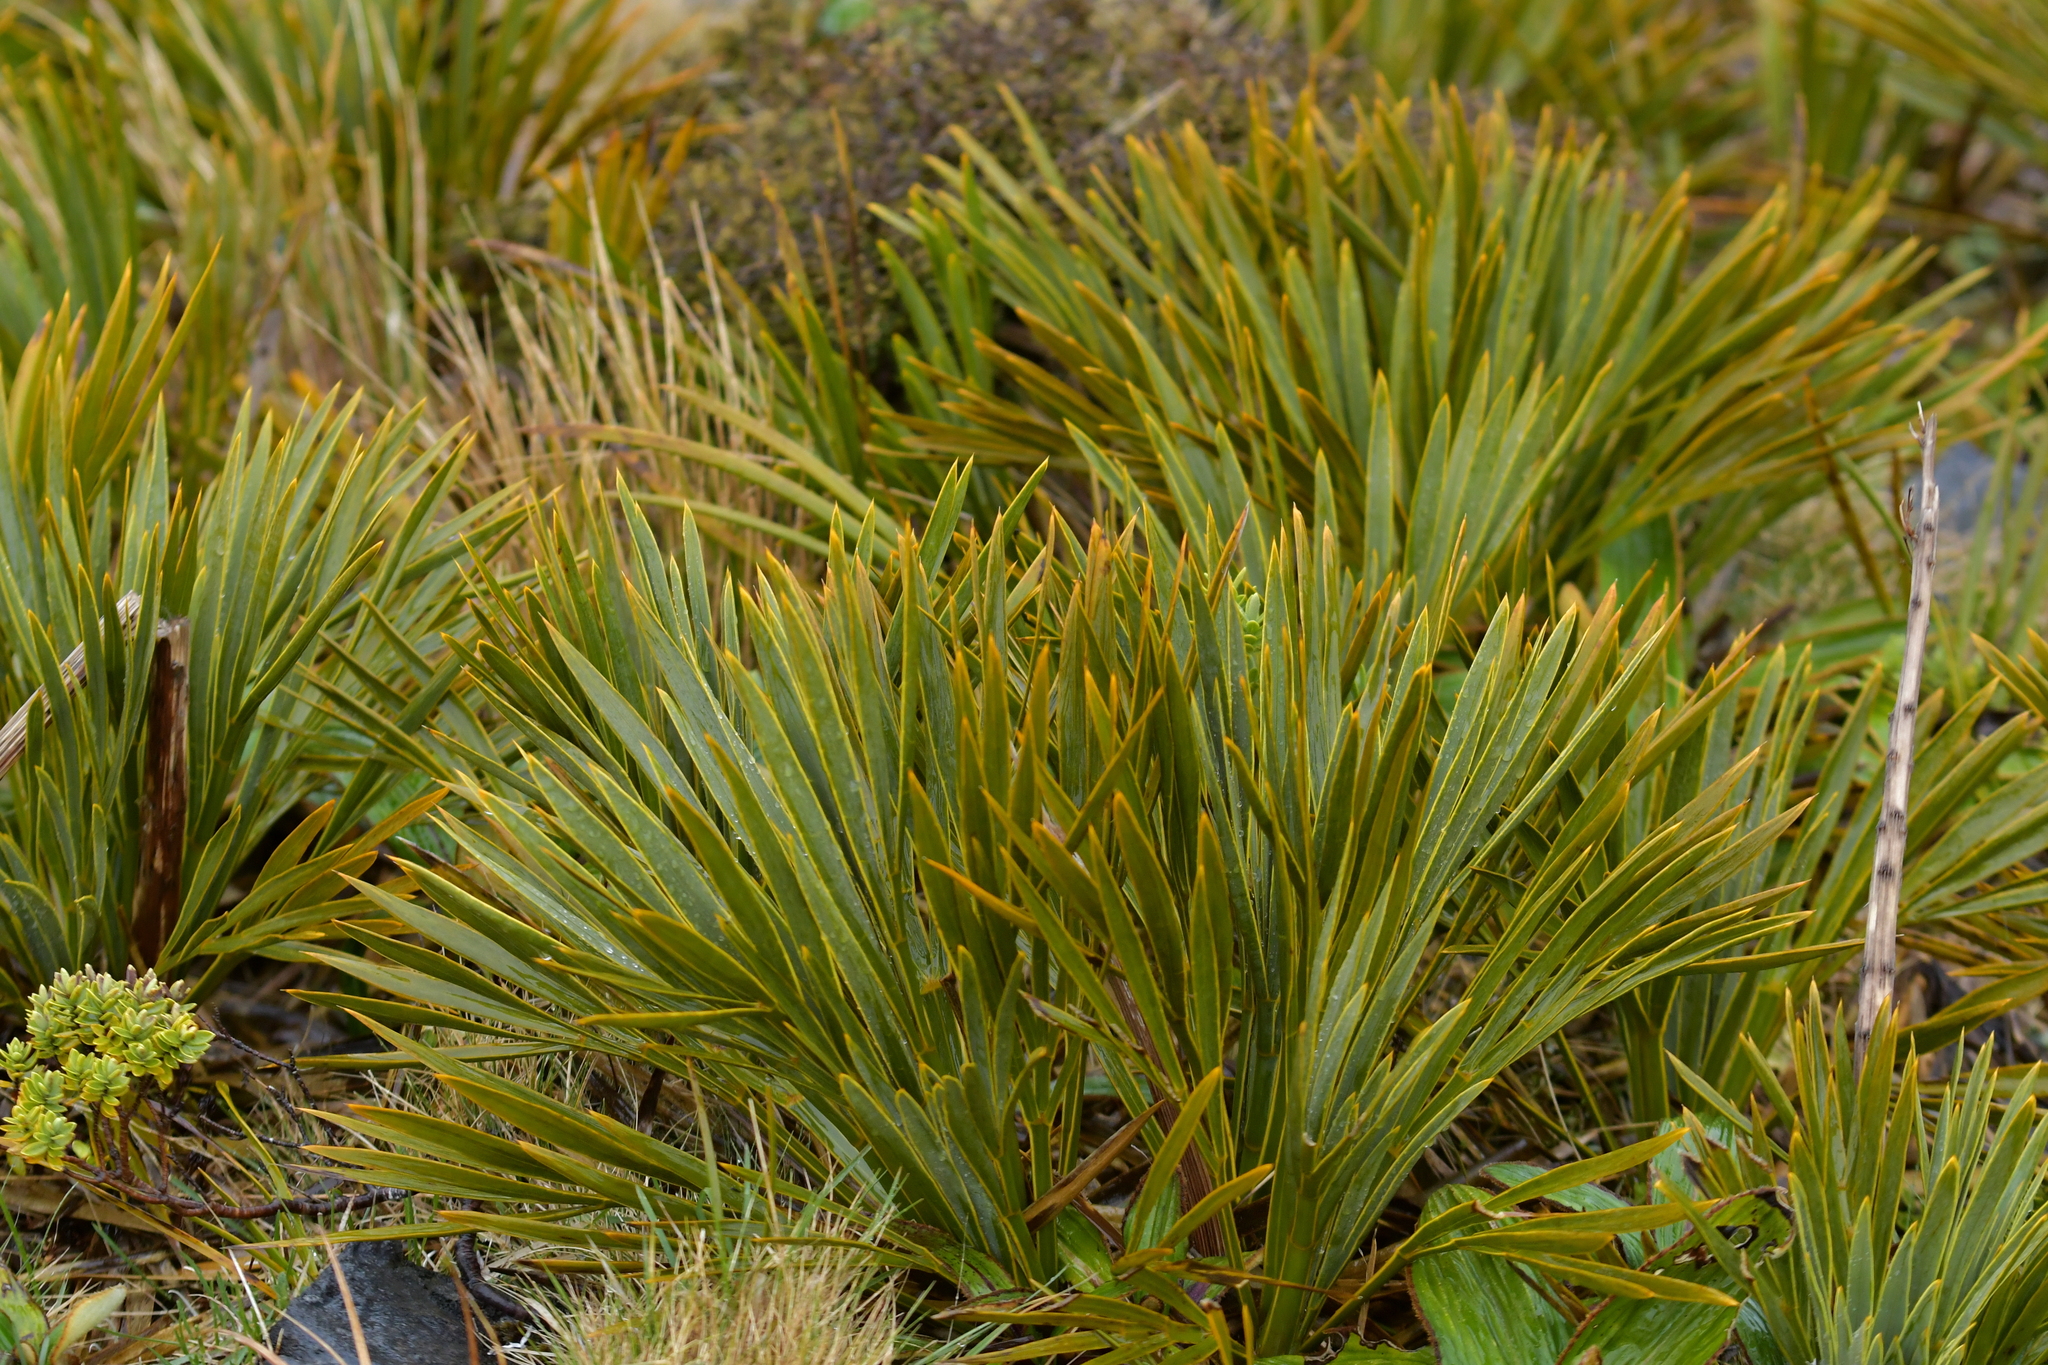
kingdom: Plantae
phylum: Tracheophyta
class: Magnoliopsida
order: Apiales
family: Apiaceae
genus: Aciphylla
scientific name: Aciphylla ferox
